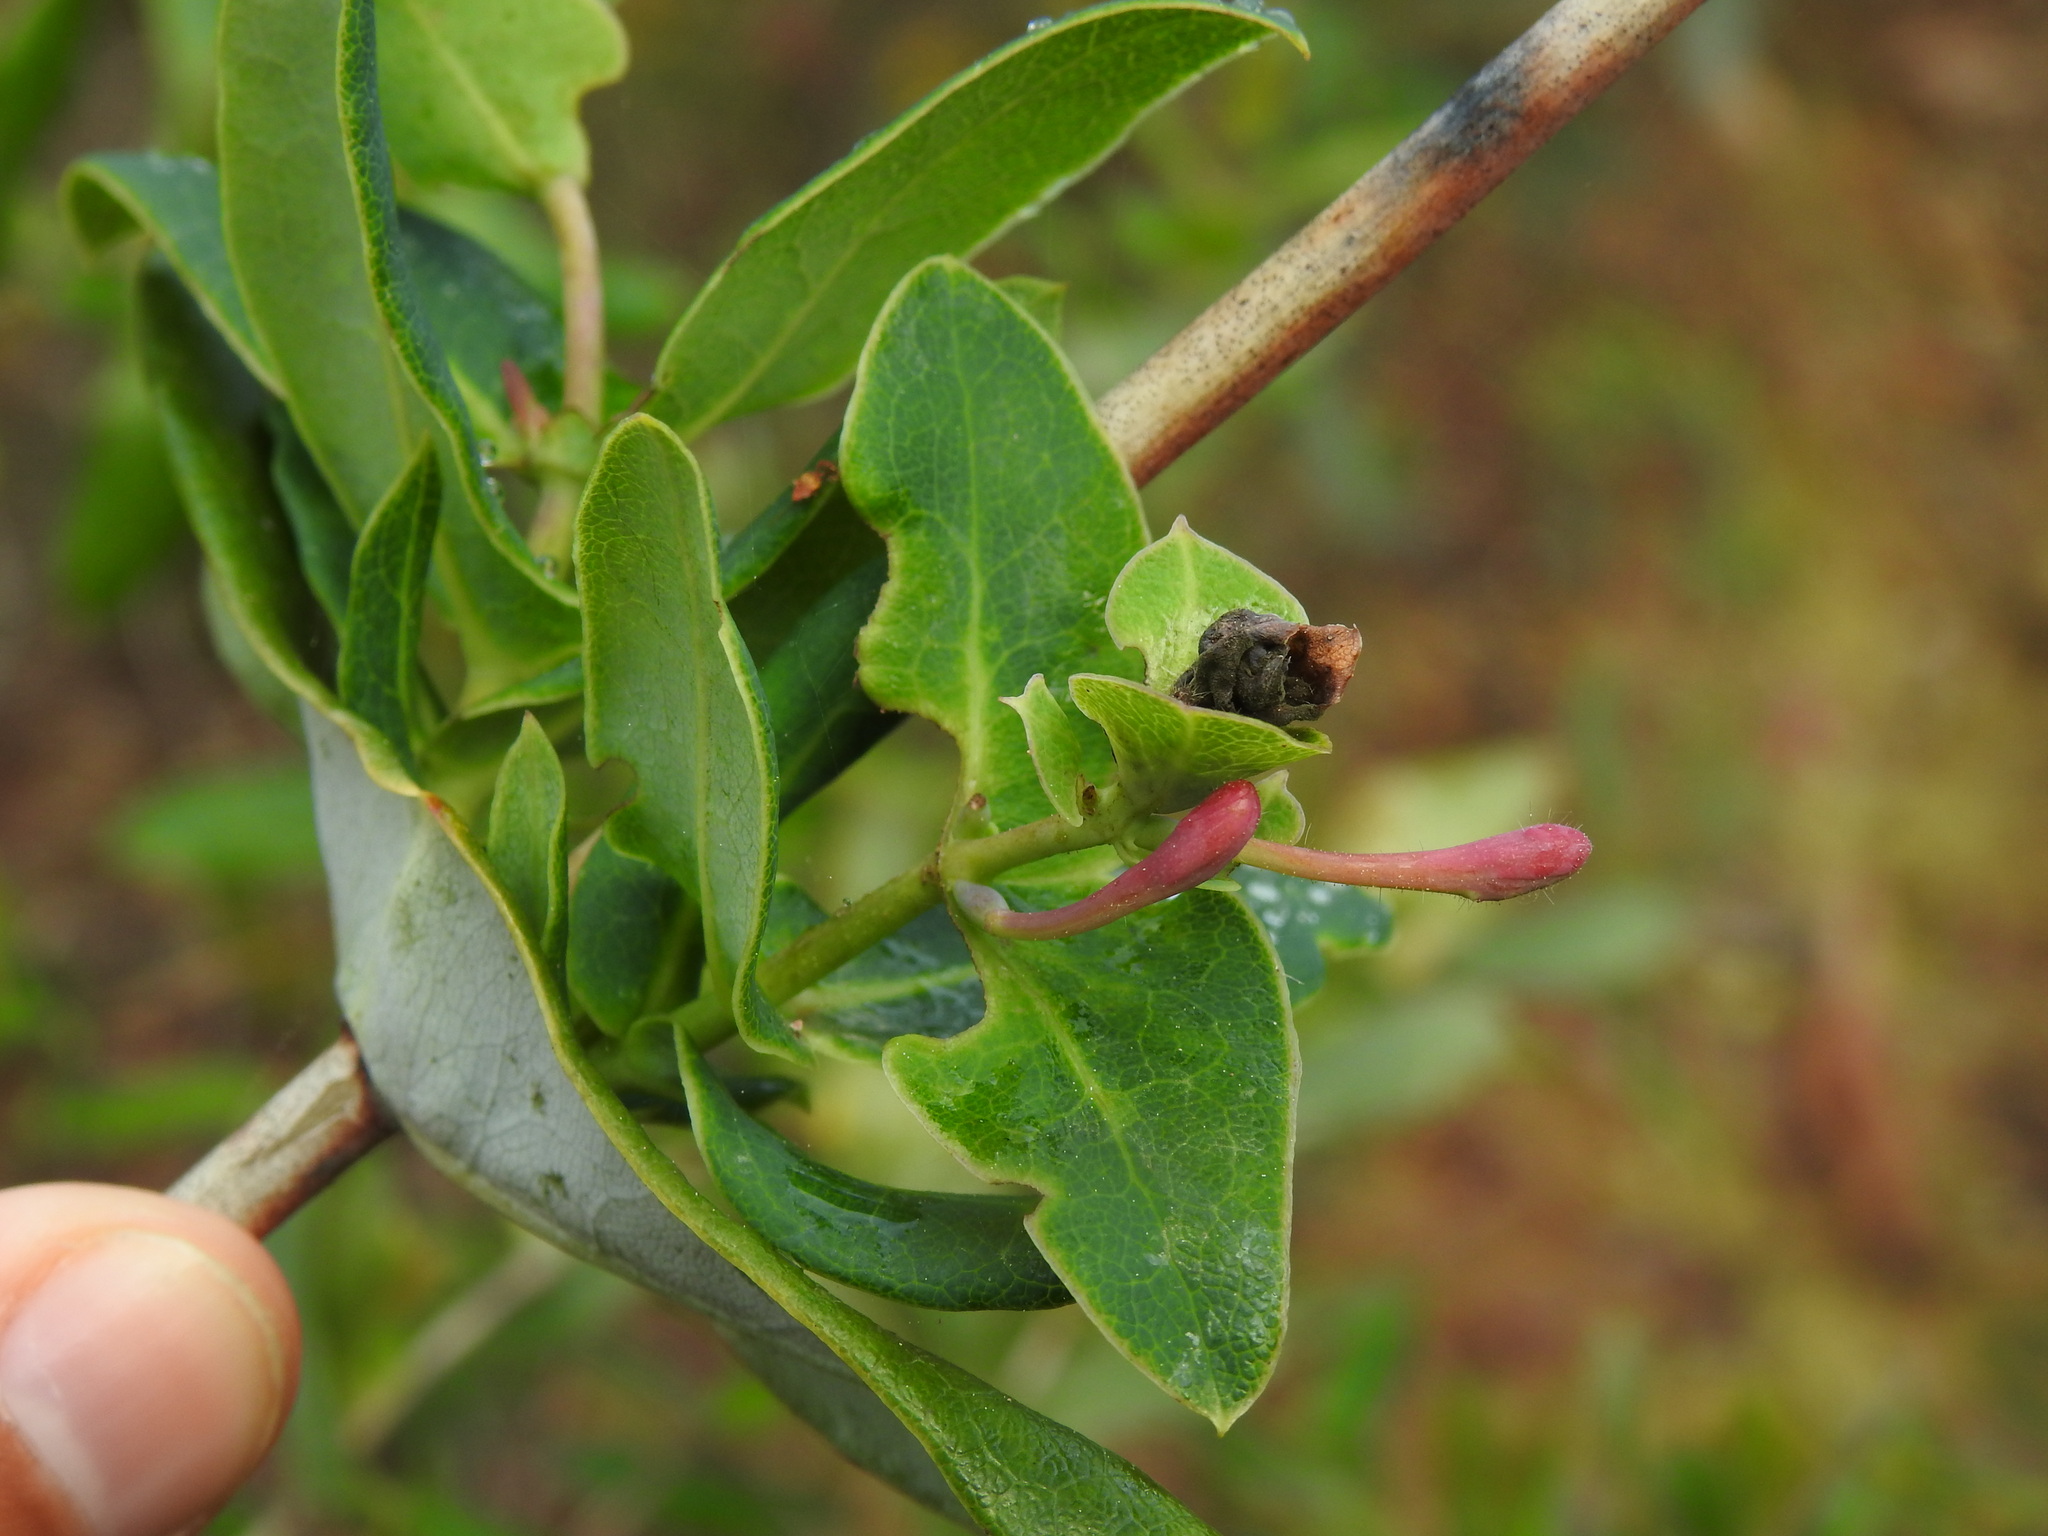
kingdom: Plantae
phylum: Tracheophyta
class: Magnoliopsida
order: Dipsacales
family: Caprifoliaceae
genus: Lonicera
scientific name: Lonicera implexa
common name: Minorca honeysuckle
